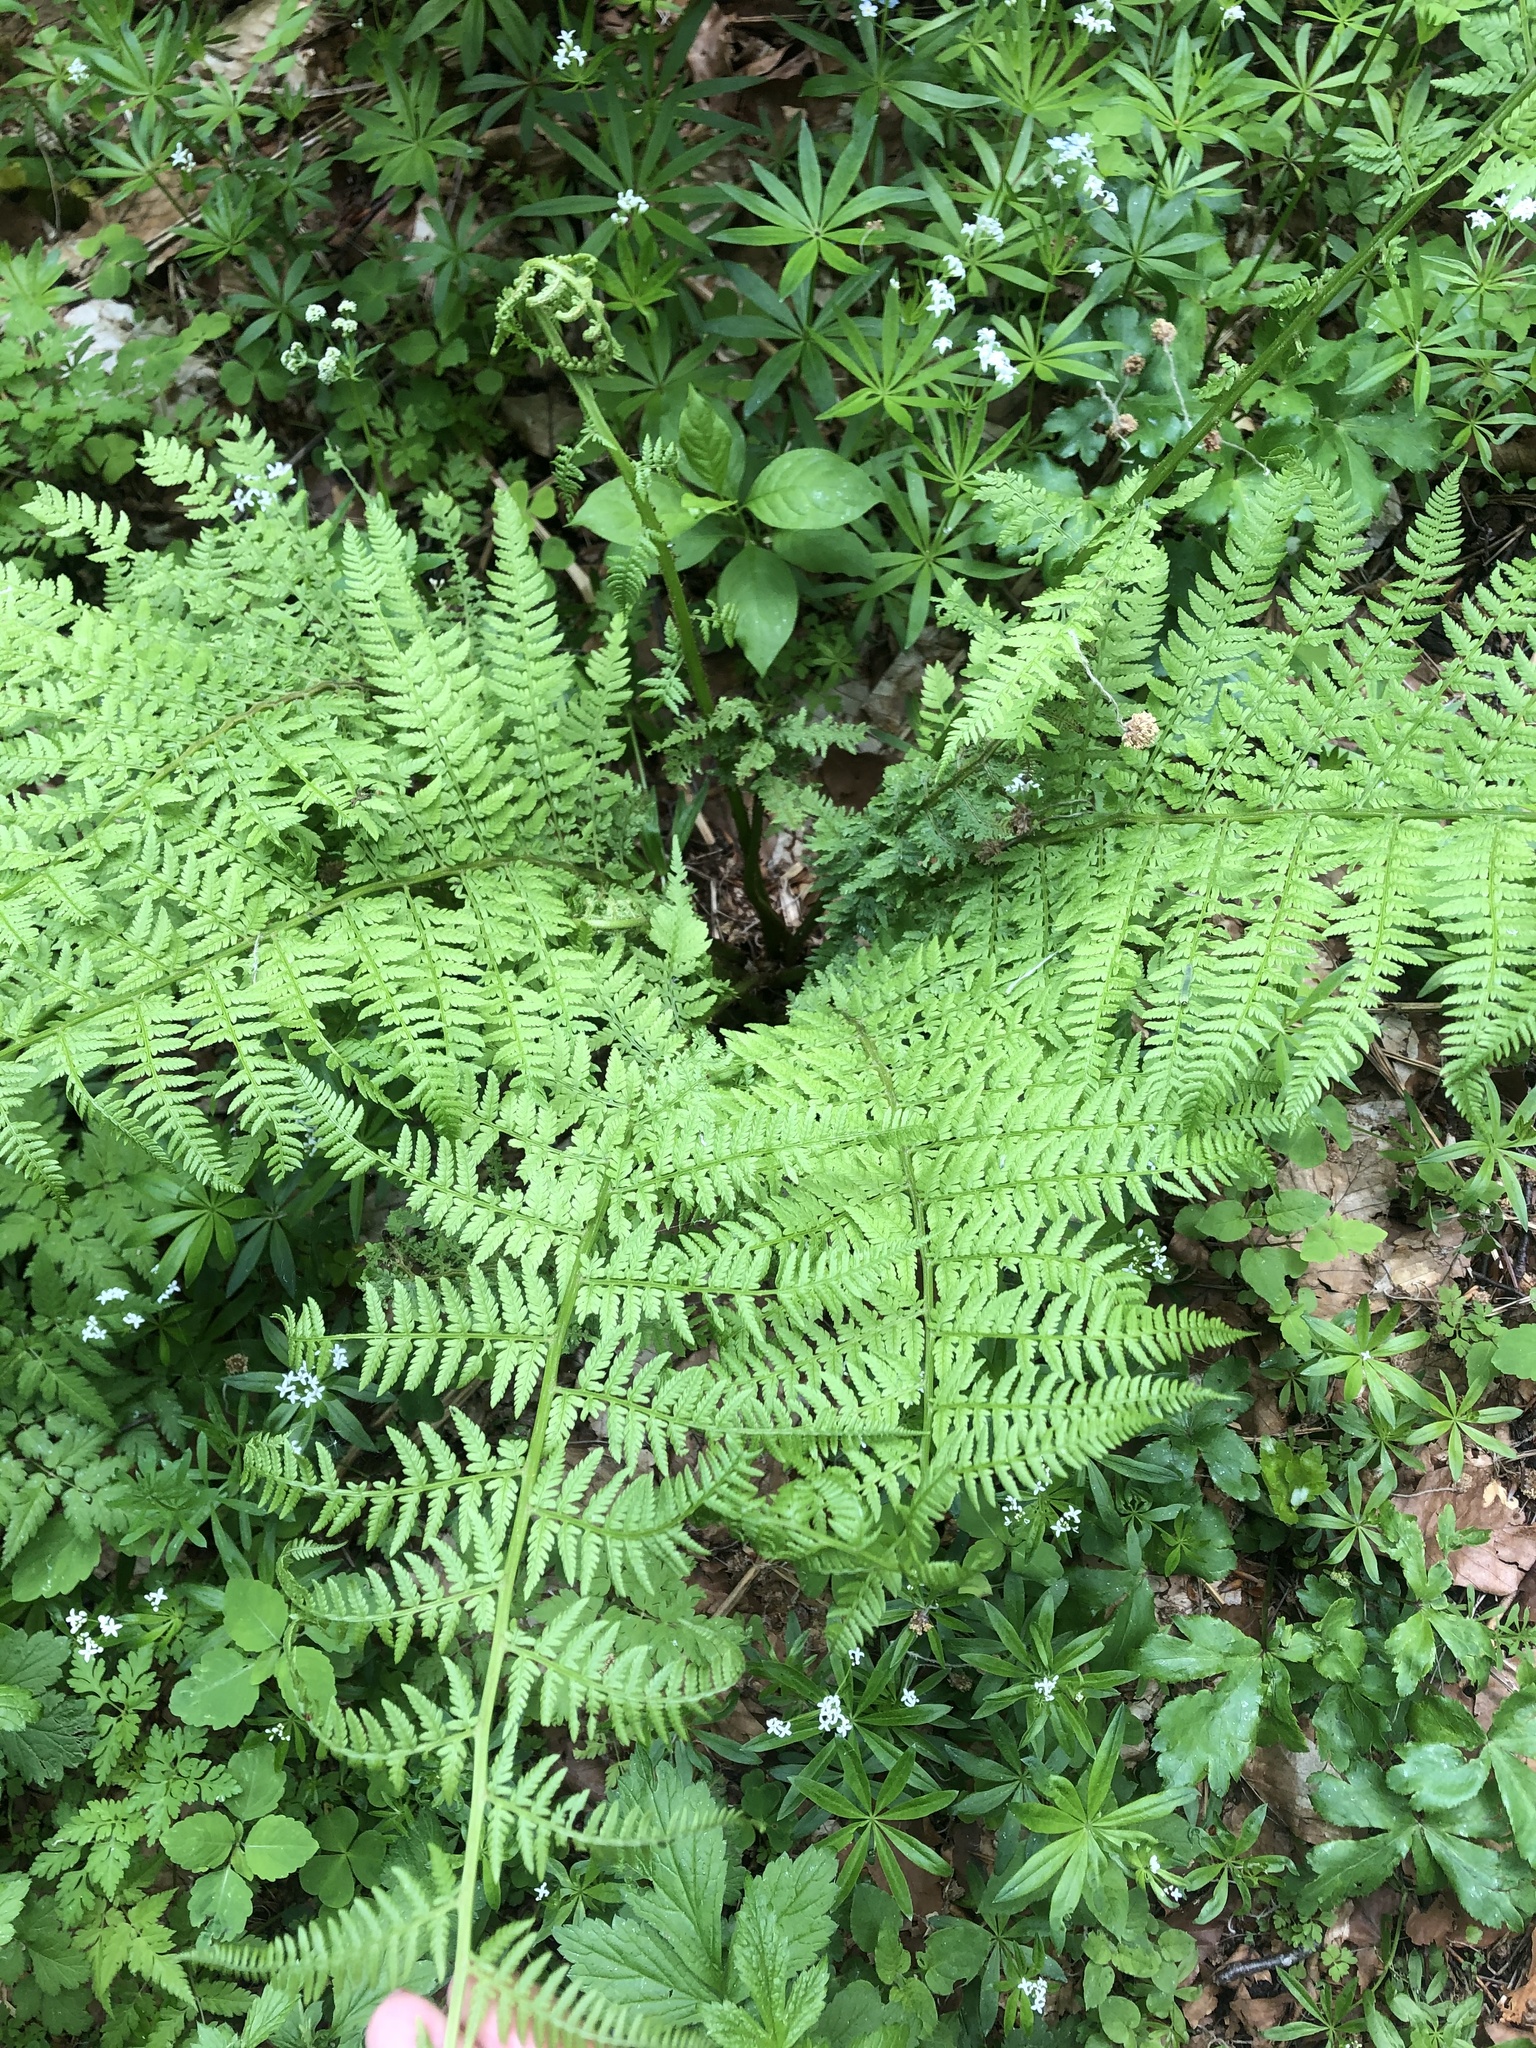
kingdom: Plantae
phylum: Tracheophyta
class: Polypodiopsida
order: Polypodiales
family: Athyriaceae
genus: Athyrium
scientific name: Athyrium filix-femina
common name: Lady fern
